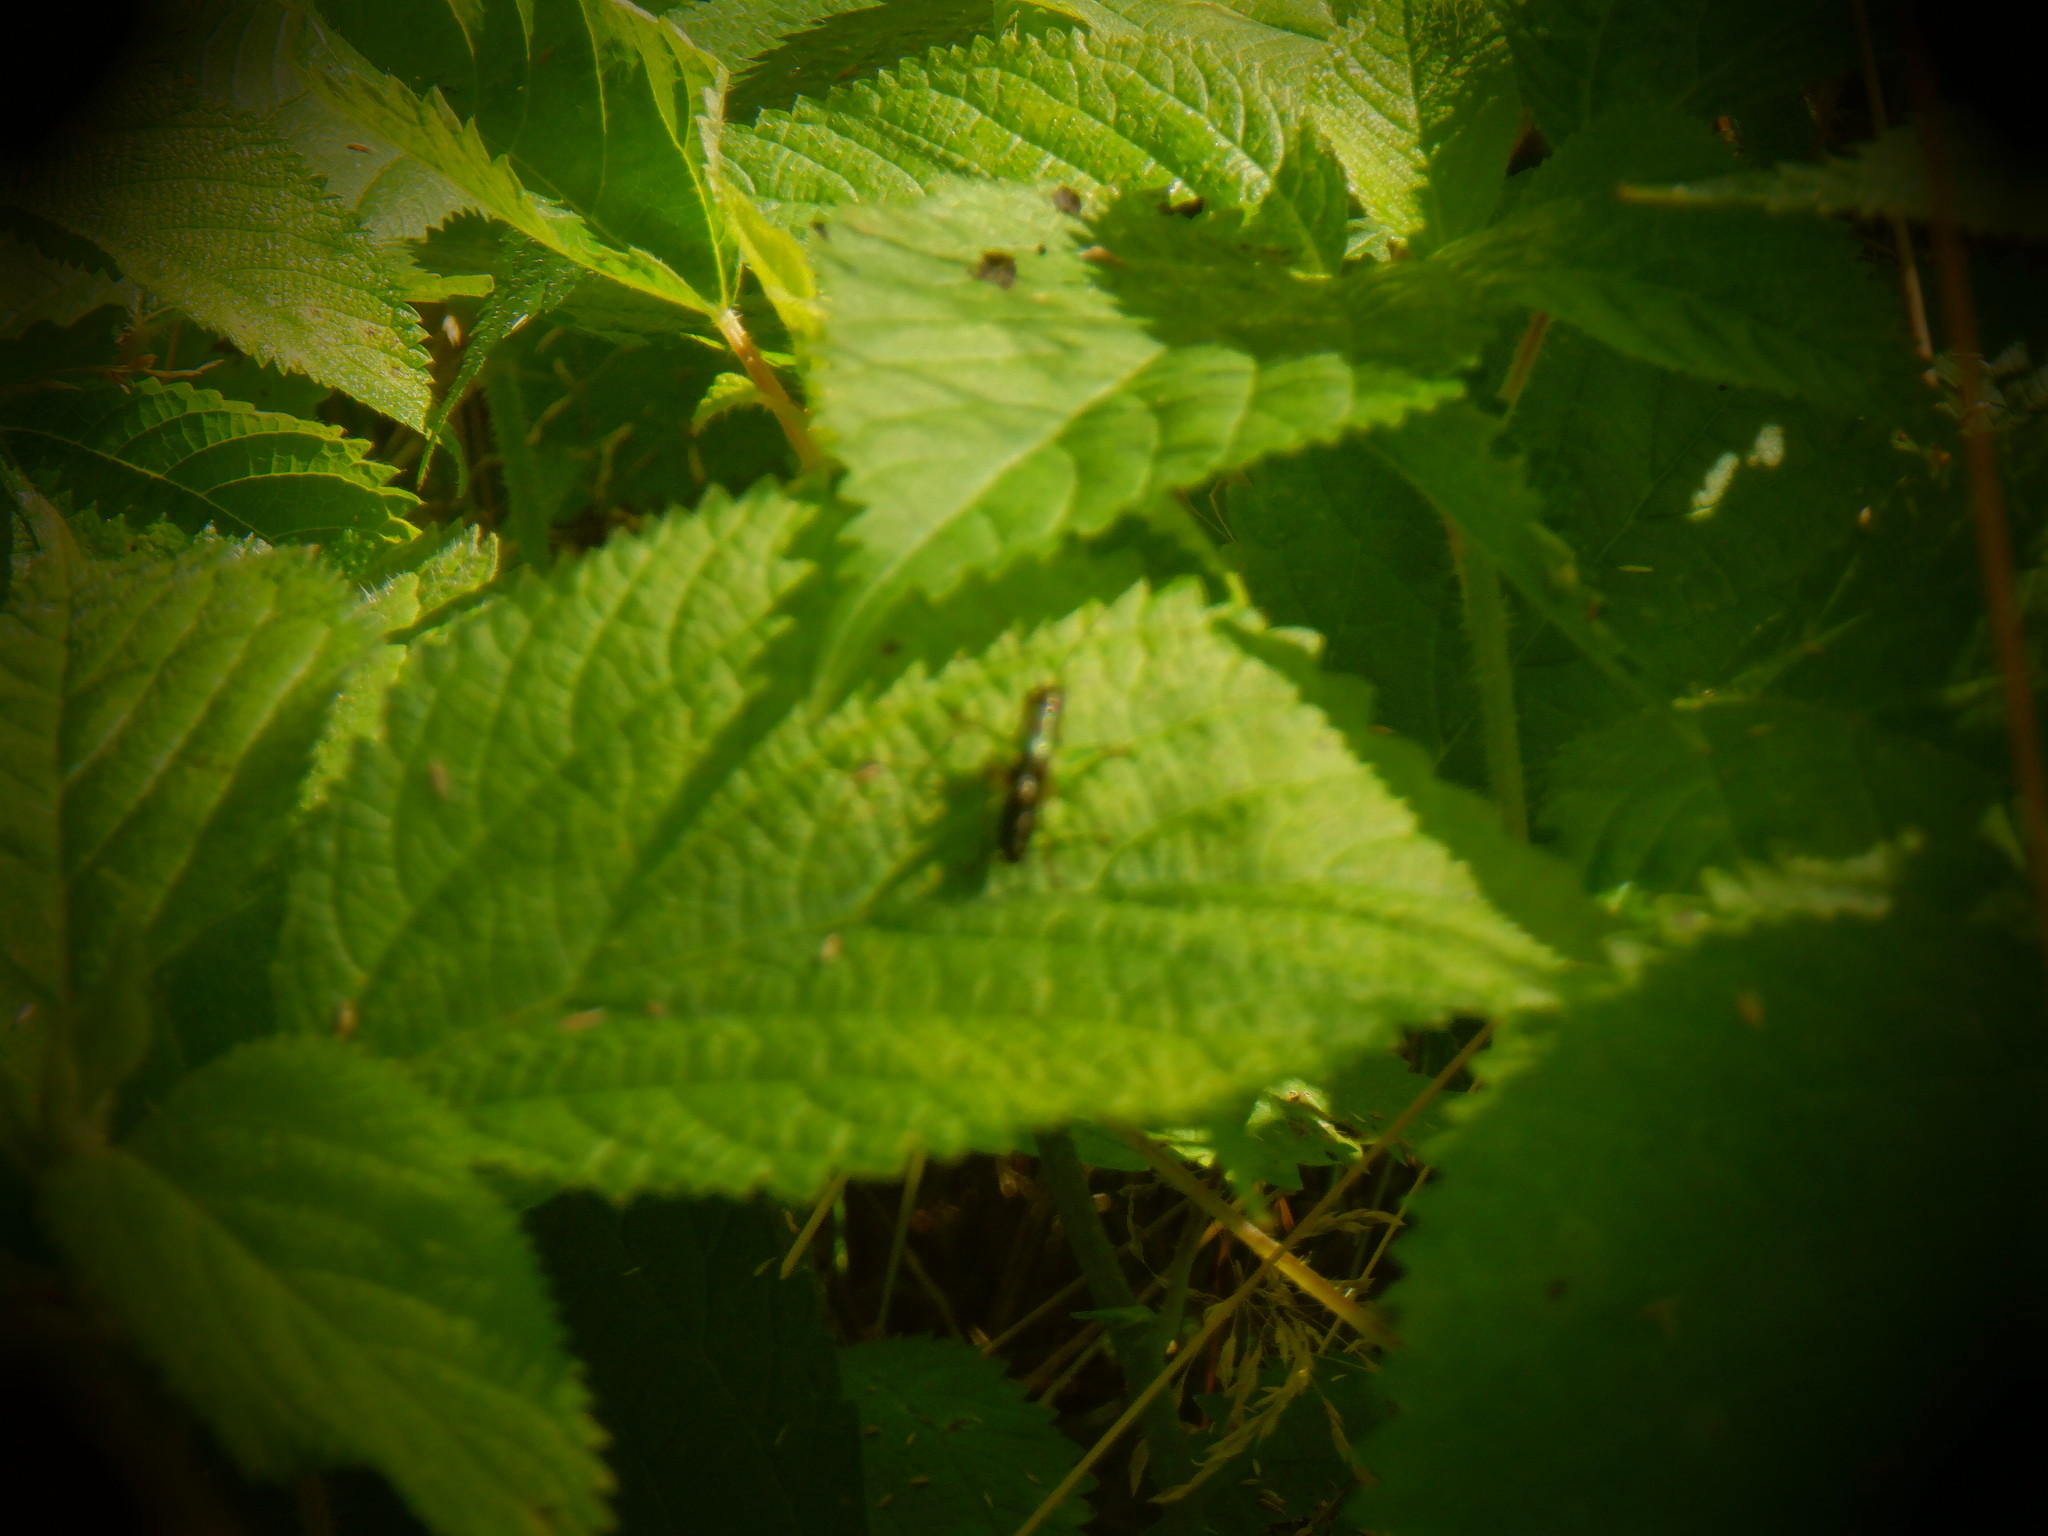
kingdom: Animalia
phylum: Arthropoda
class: Insecta
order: Orthoptera
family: Tettigoniidae
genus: Conocephalus
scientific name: Conocephalus nigropleurum
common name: Black-sided meadow katydid
